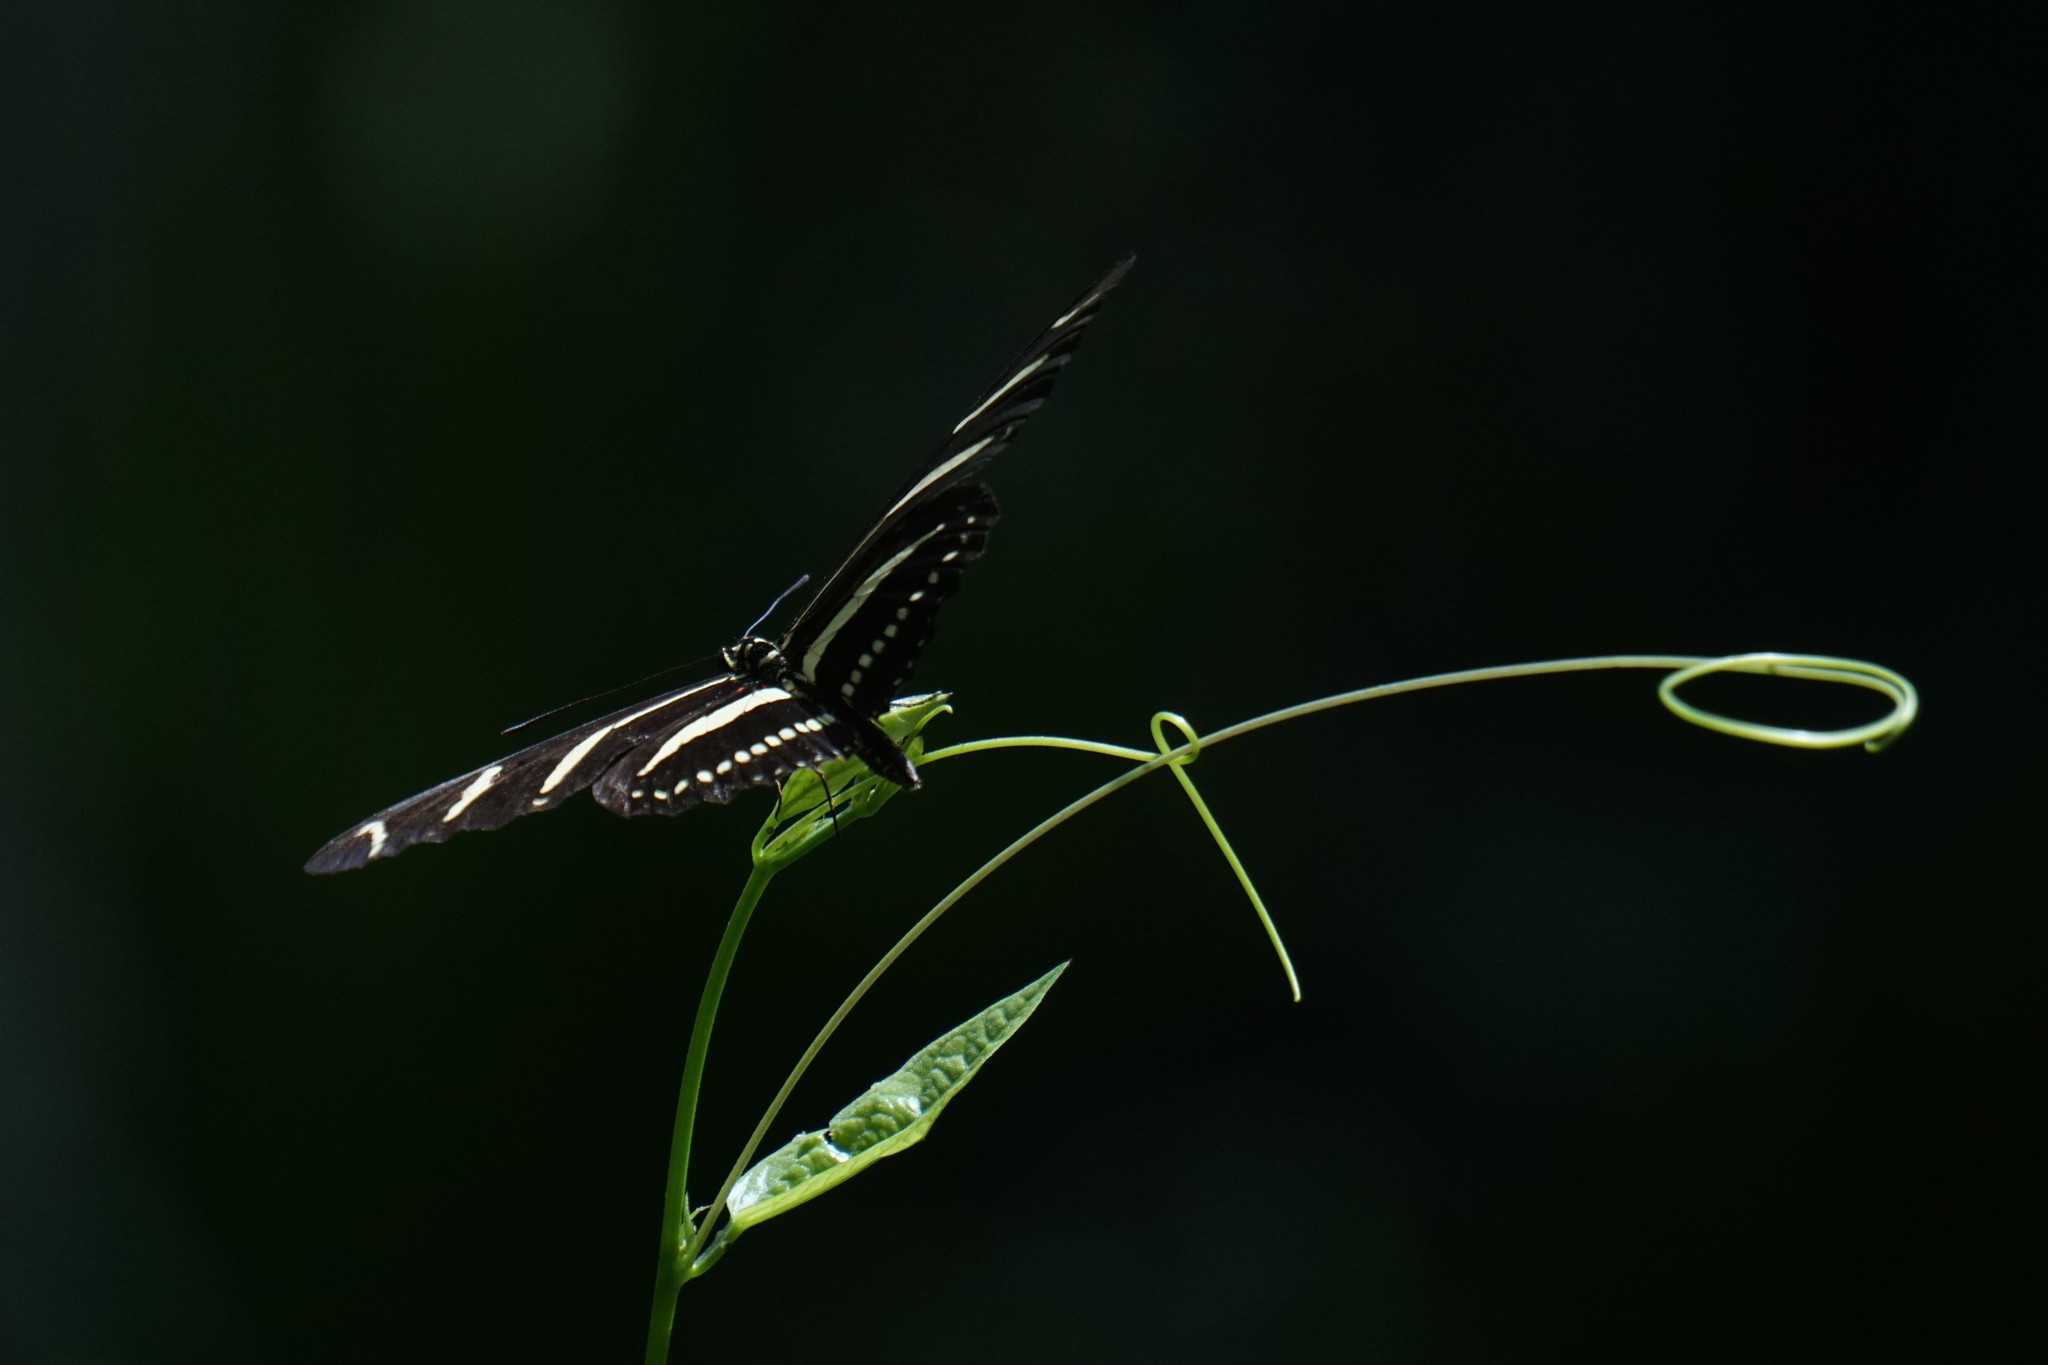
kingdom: Animalia
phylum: Arthropoda
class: Insecta
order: Lepidoptera
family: Nymphalidae
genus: Heliconius
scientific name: Heliconius charithonia
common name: Zebra long wing
